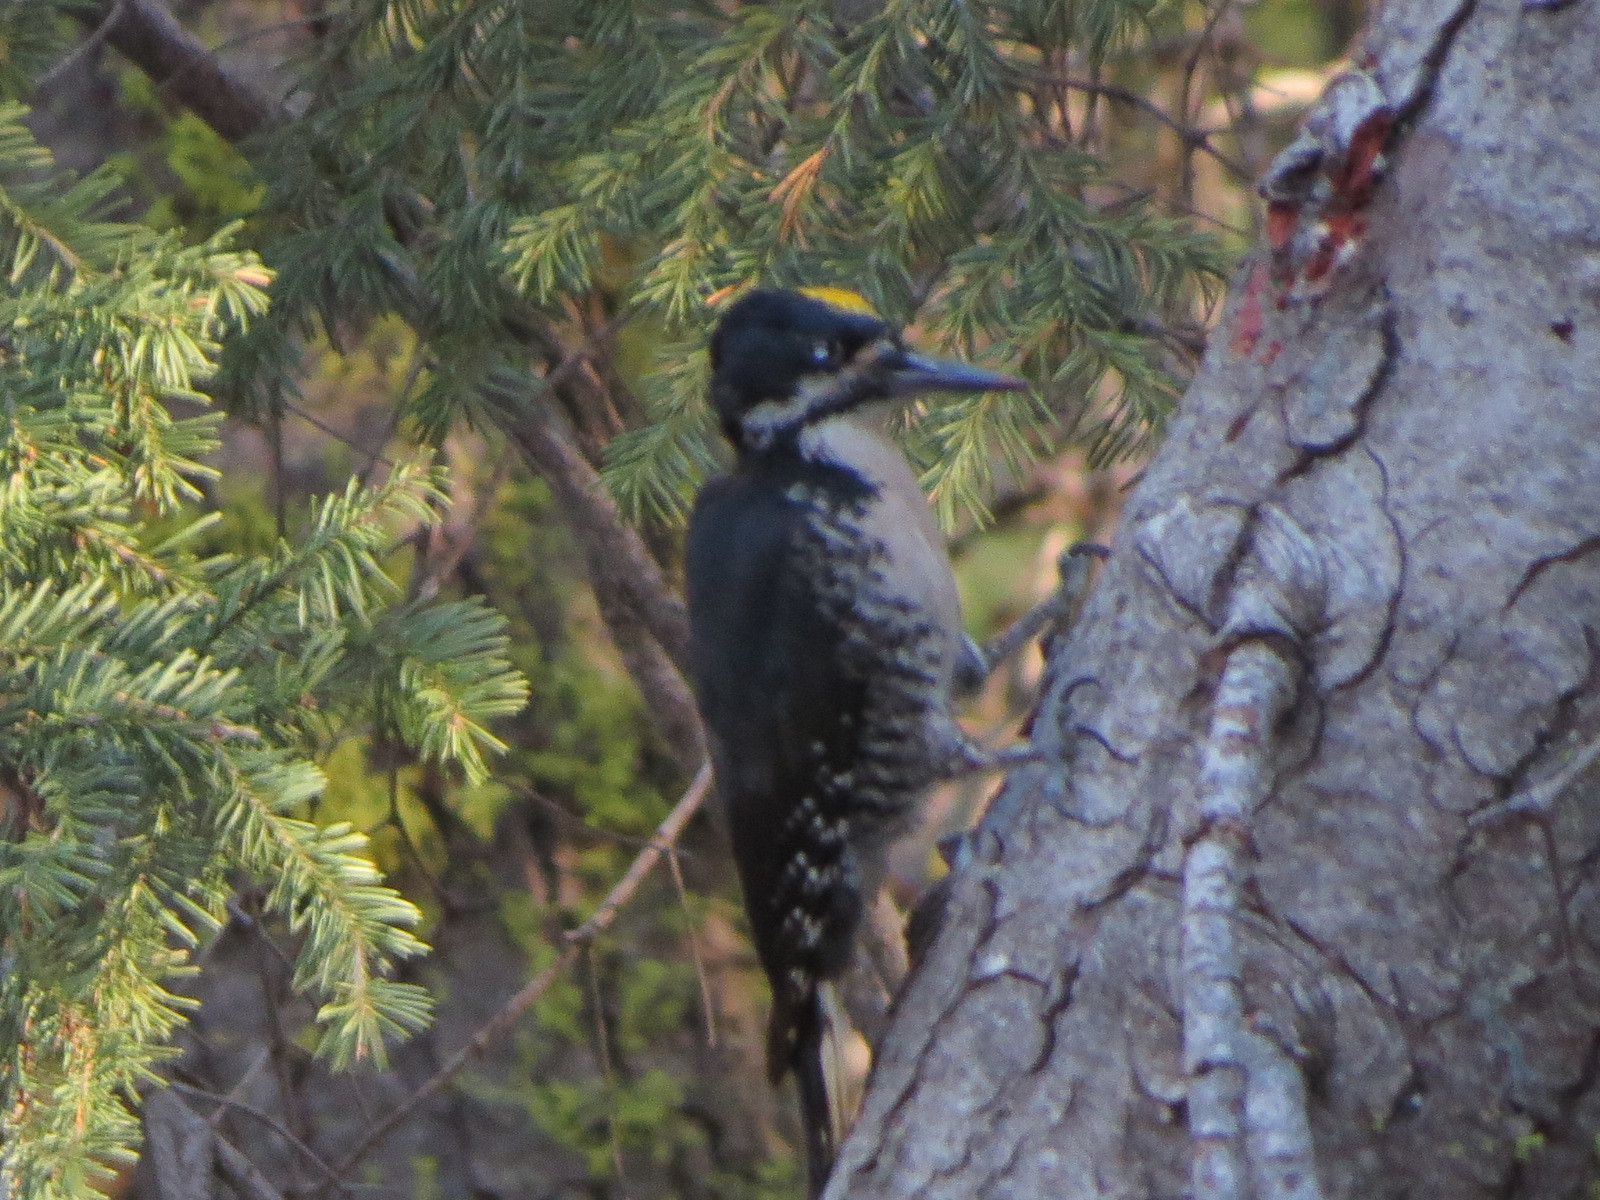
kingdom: Animalia
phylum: Chordata
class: Aves
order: Piciformes
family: Picidae
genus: Picoides
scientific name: Picoides arcticus
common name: Black-backed woodpecker
